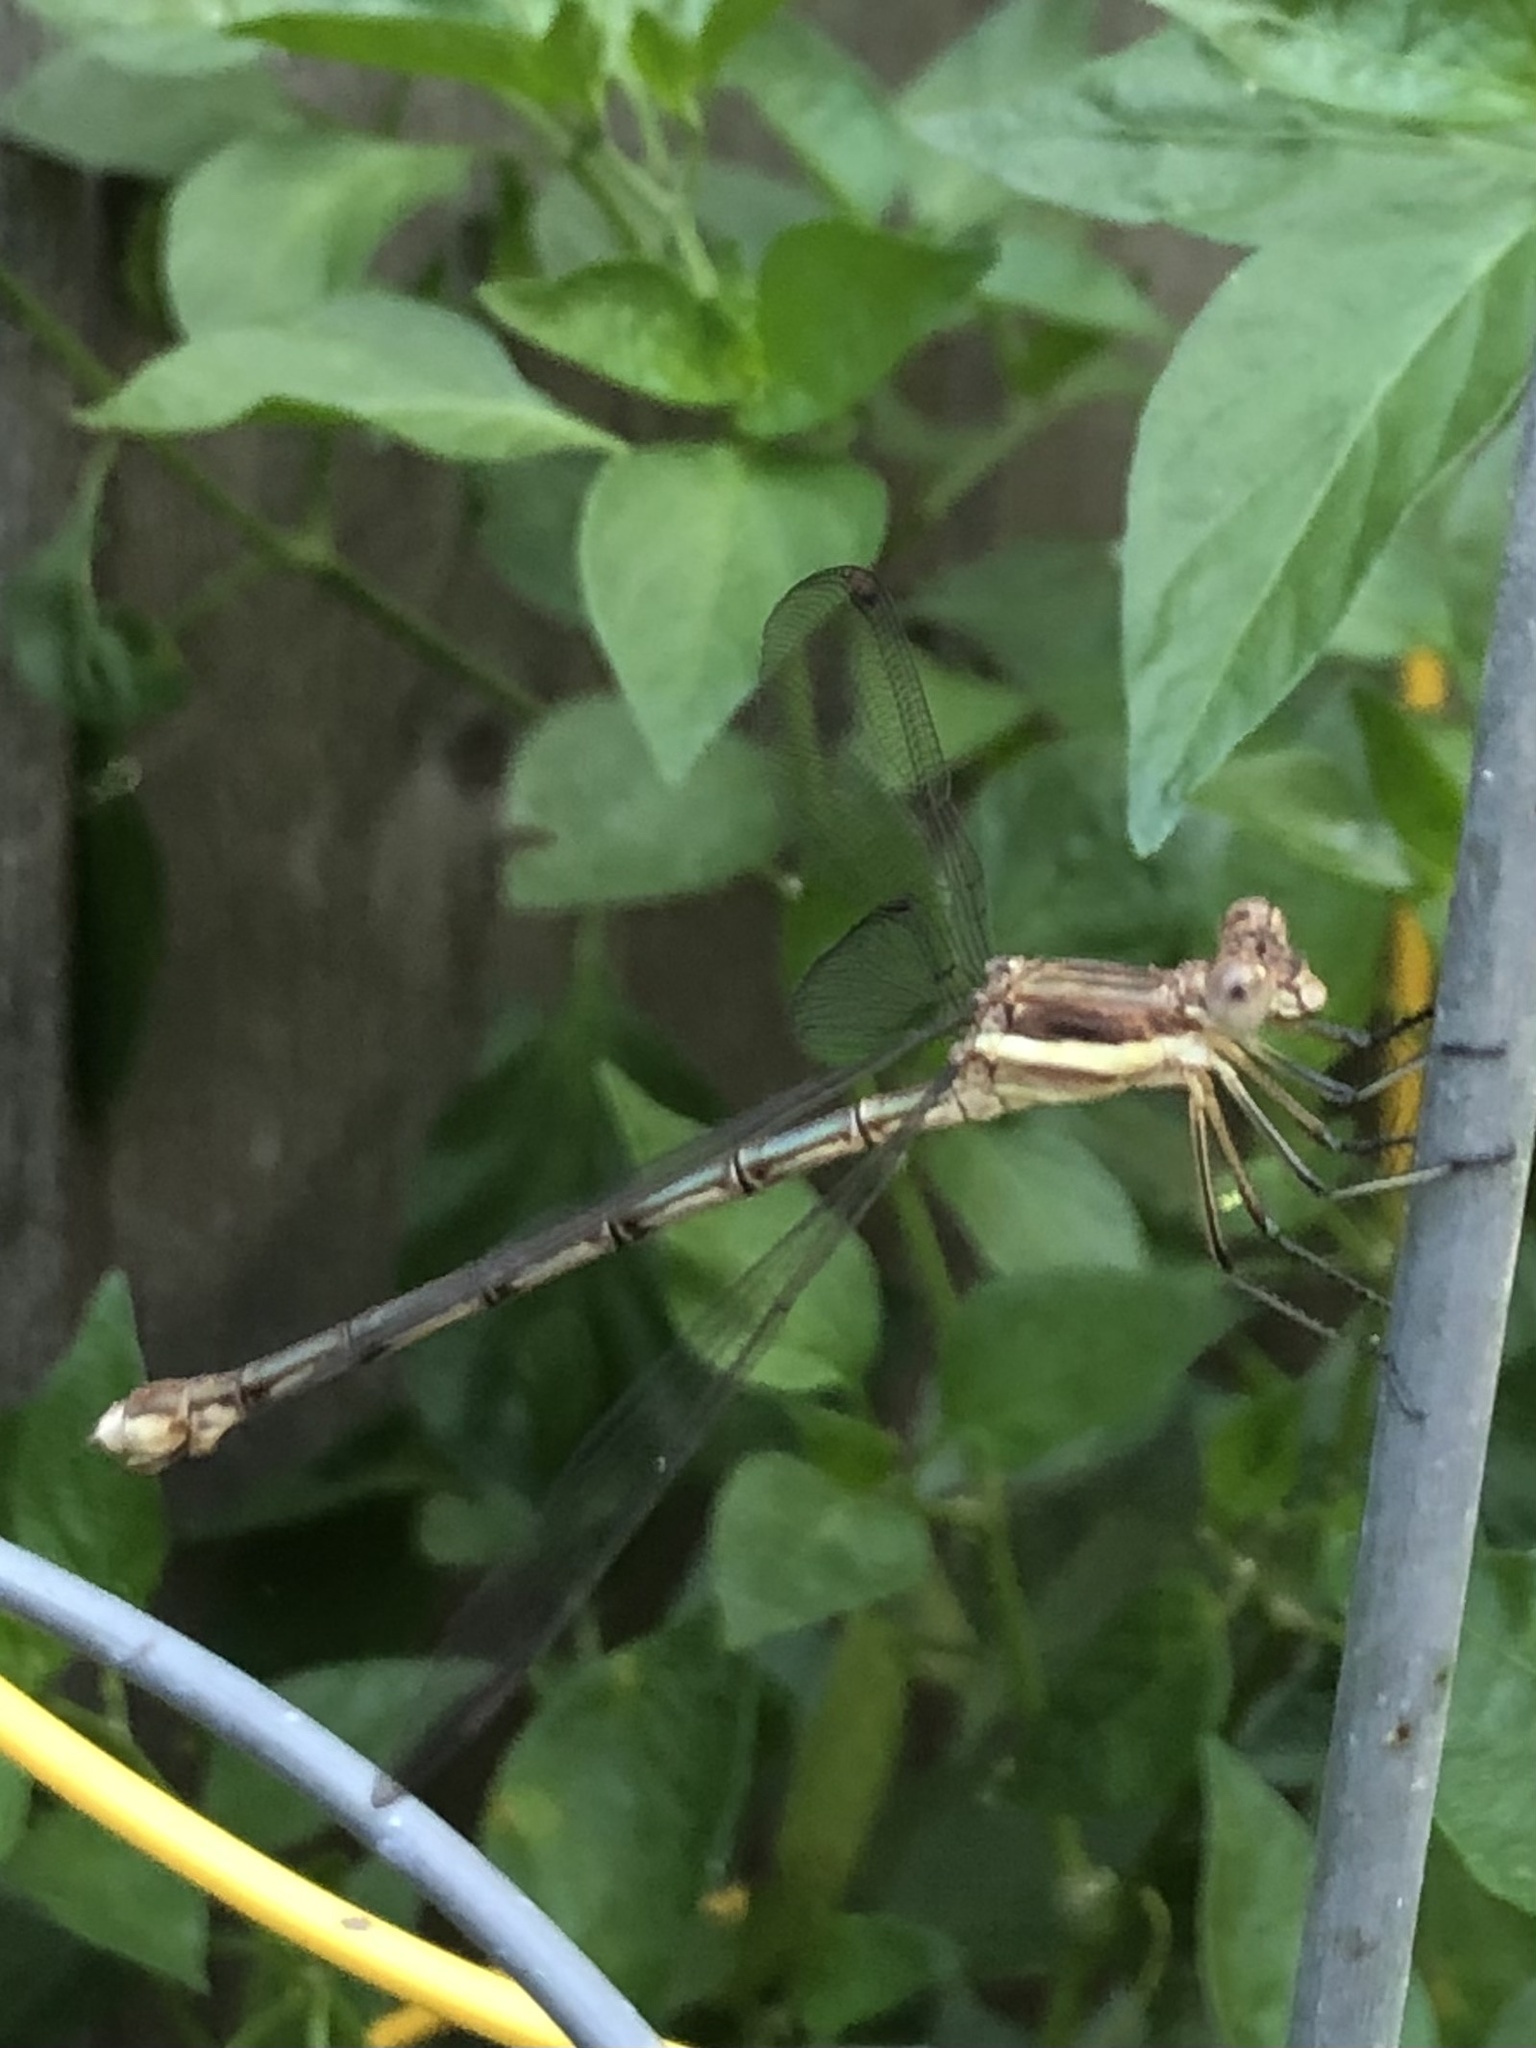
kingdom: Animalia
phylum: Arthropoda
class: Insecta
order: Odonata
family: Lestidae
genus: Archilestes
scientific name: Archilestes grandis
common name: Great spreadwing
